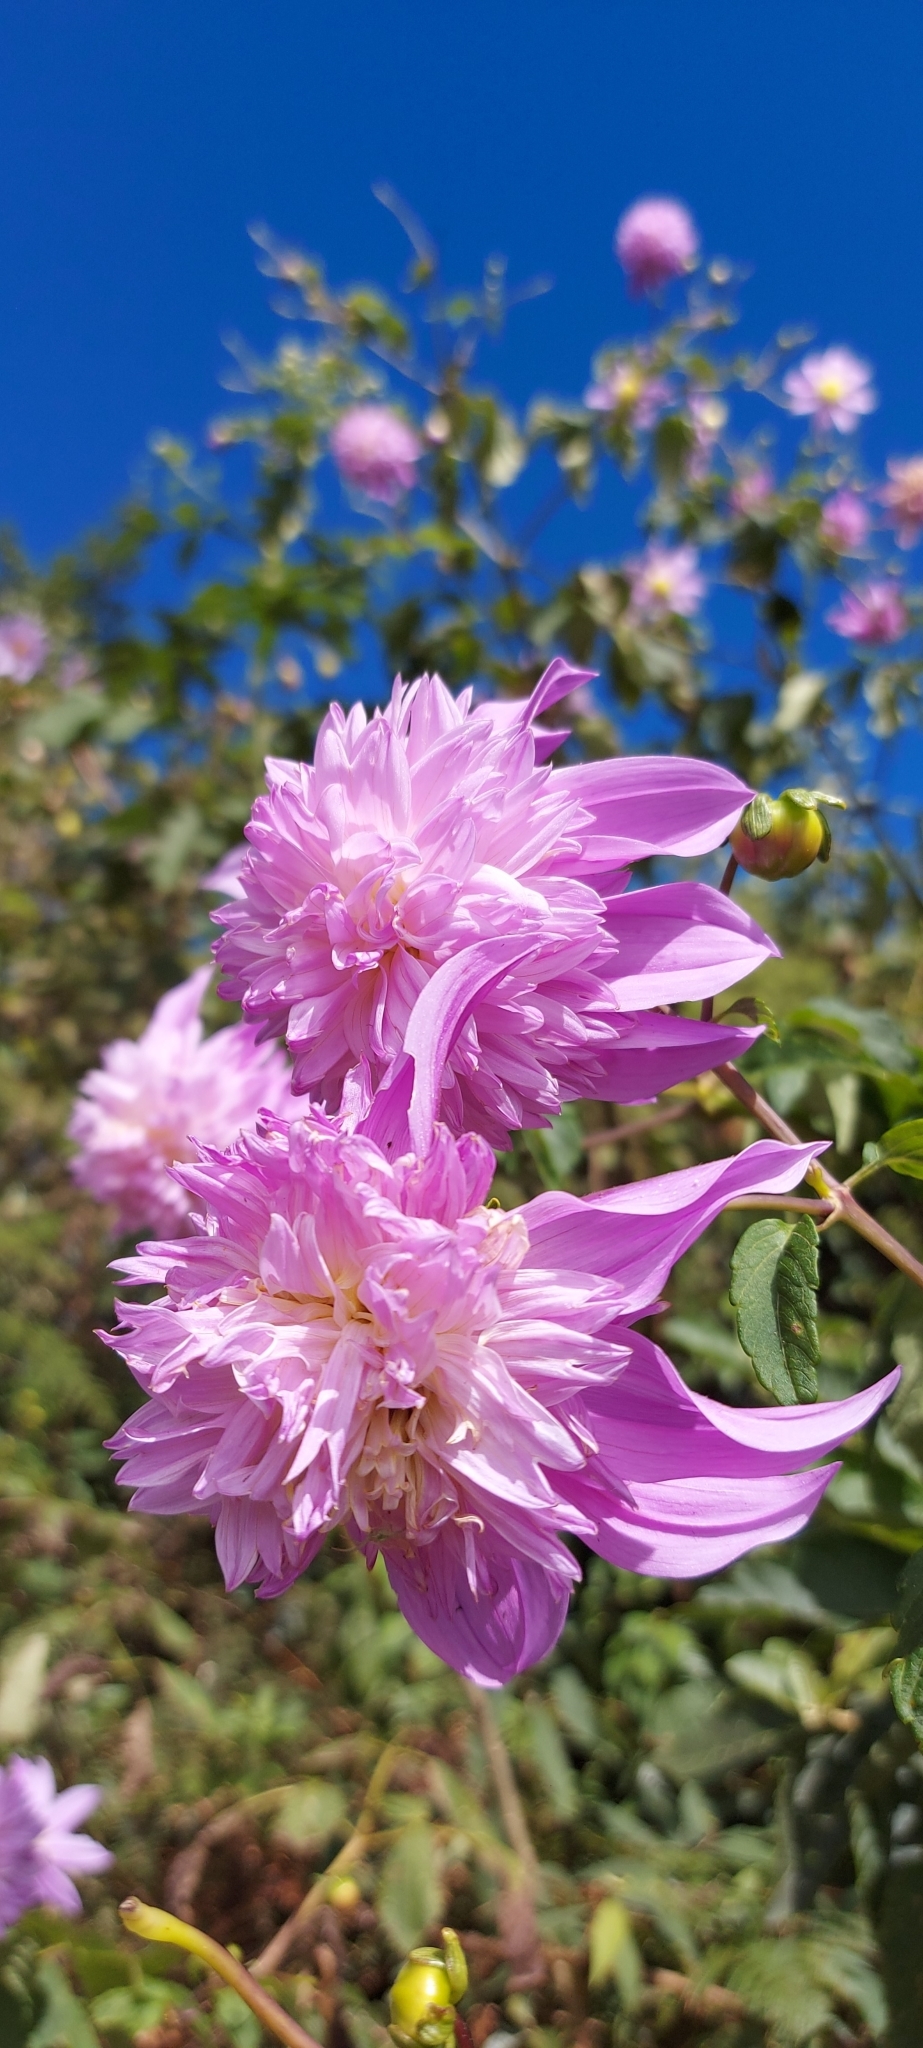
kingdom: Plantae
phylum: Tracheophyta
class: Magnoliopsida
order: Asterales
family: Asteraceae
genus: Dahlia
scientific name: Dahlia pinnata
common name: Dahlia
